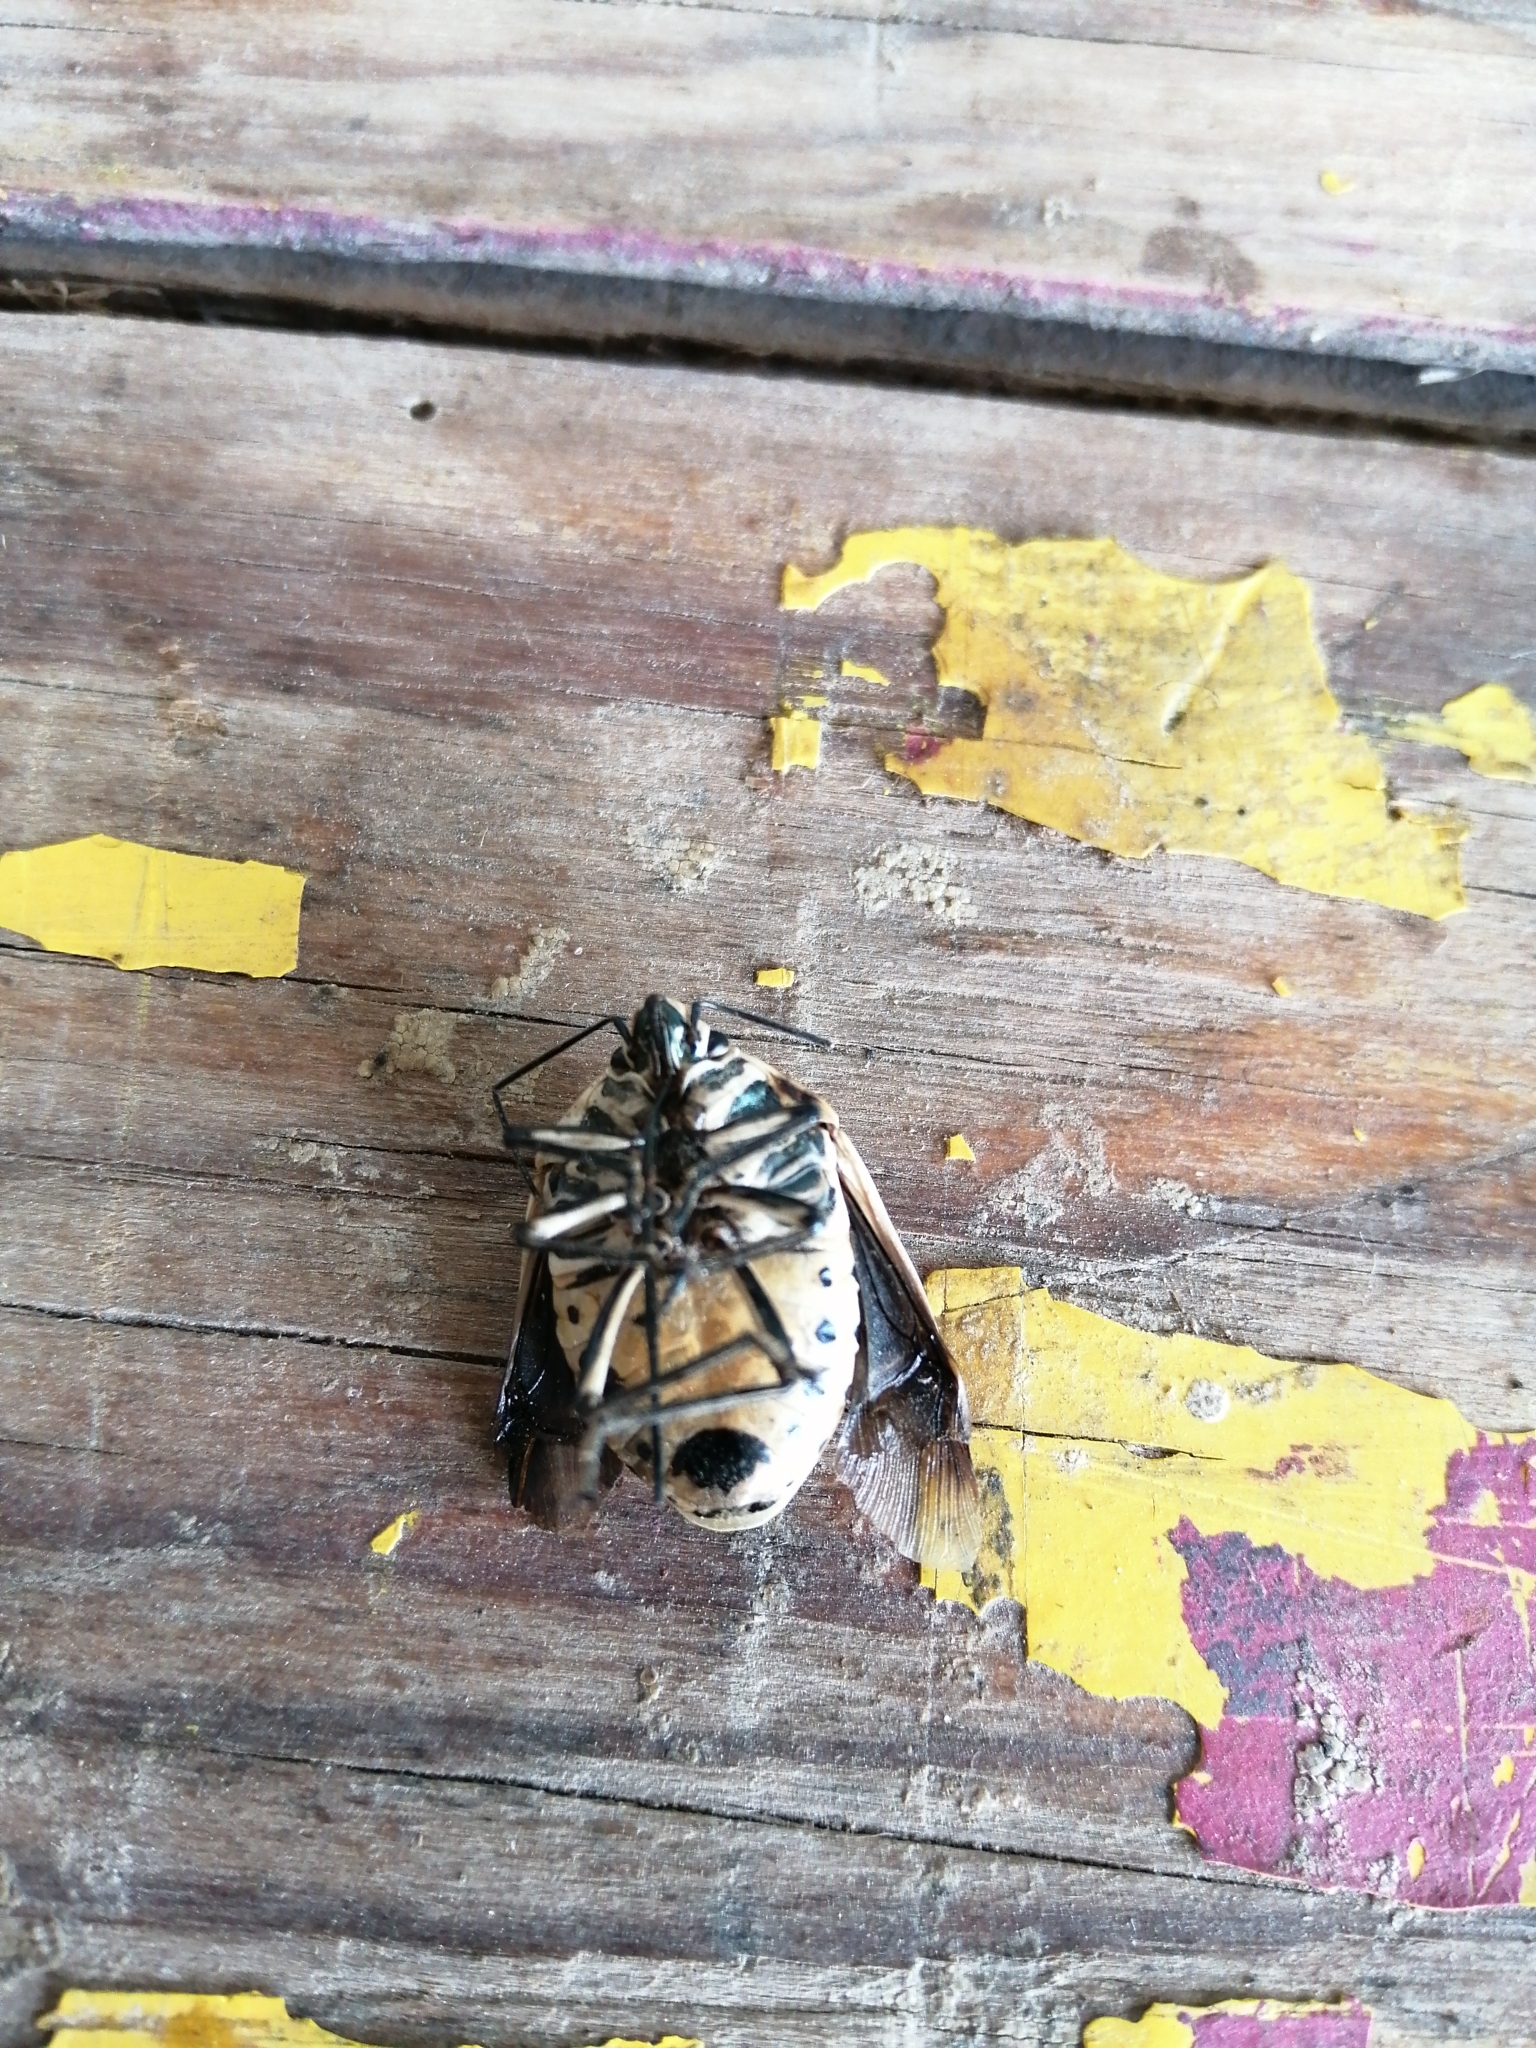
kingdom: Animalia
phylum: Arthropoda
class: Insecta
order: Hemiptera
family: Scutelleridae
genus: Augocoris
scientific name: Augocoris gomesii
